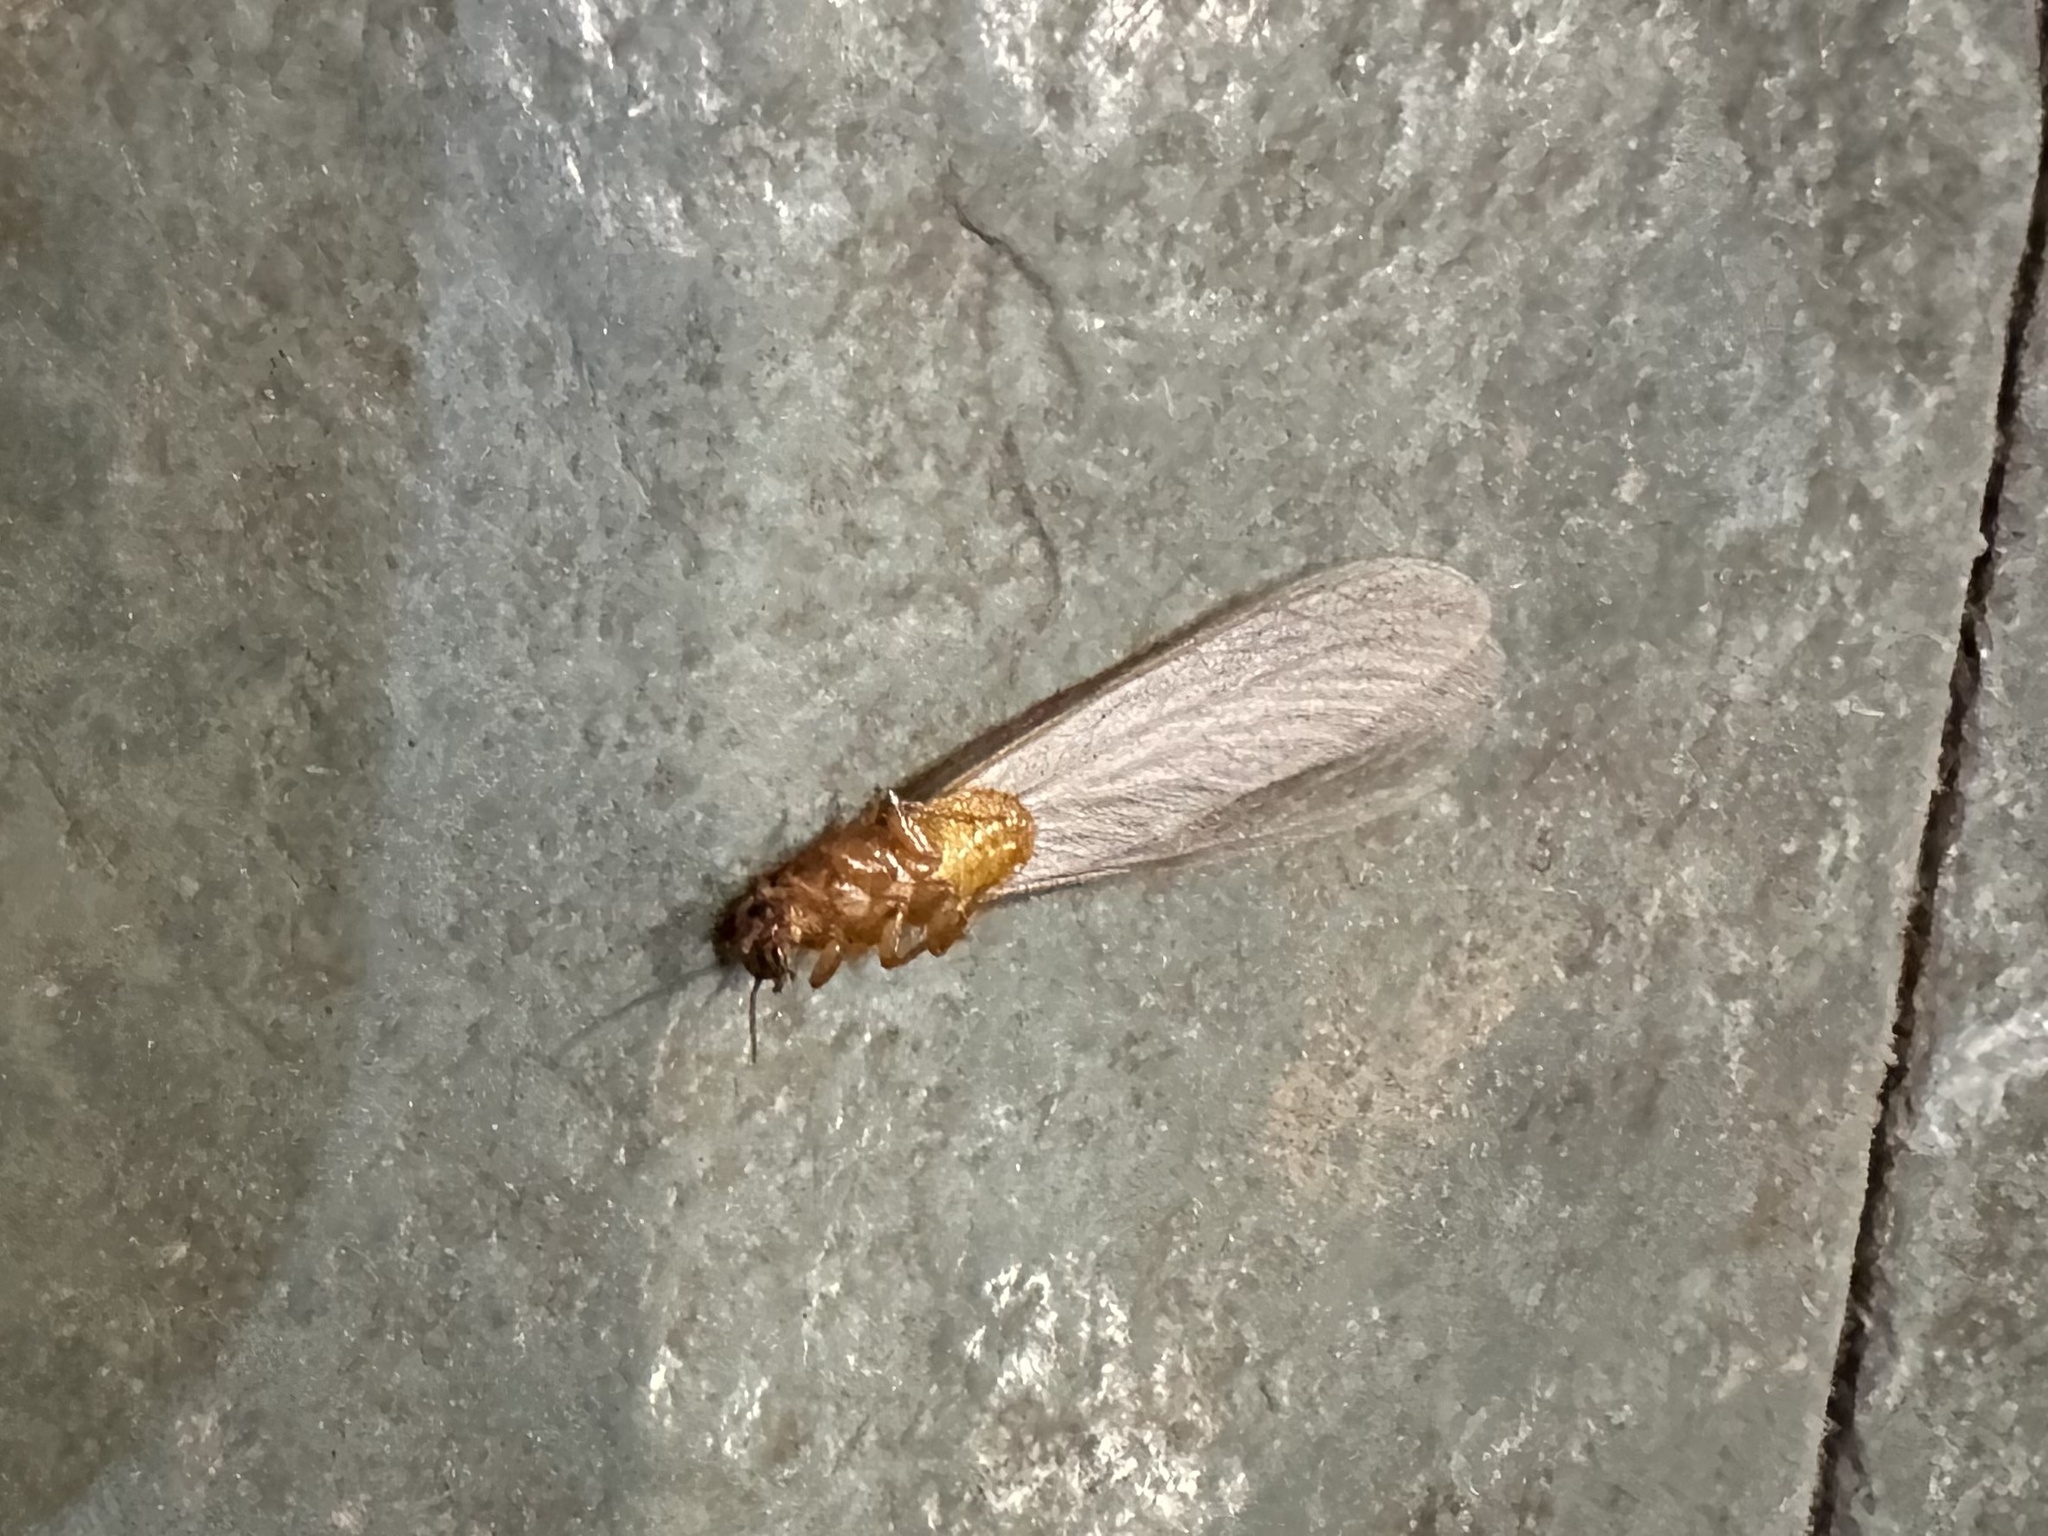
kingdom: Animalia
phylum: Arthropoda
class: Insecta
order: Blattodea
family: Stolotermitidae
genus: Porotermes
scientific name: Porotermes quadricollis
